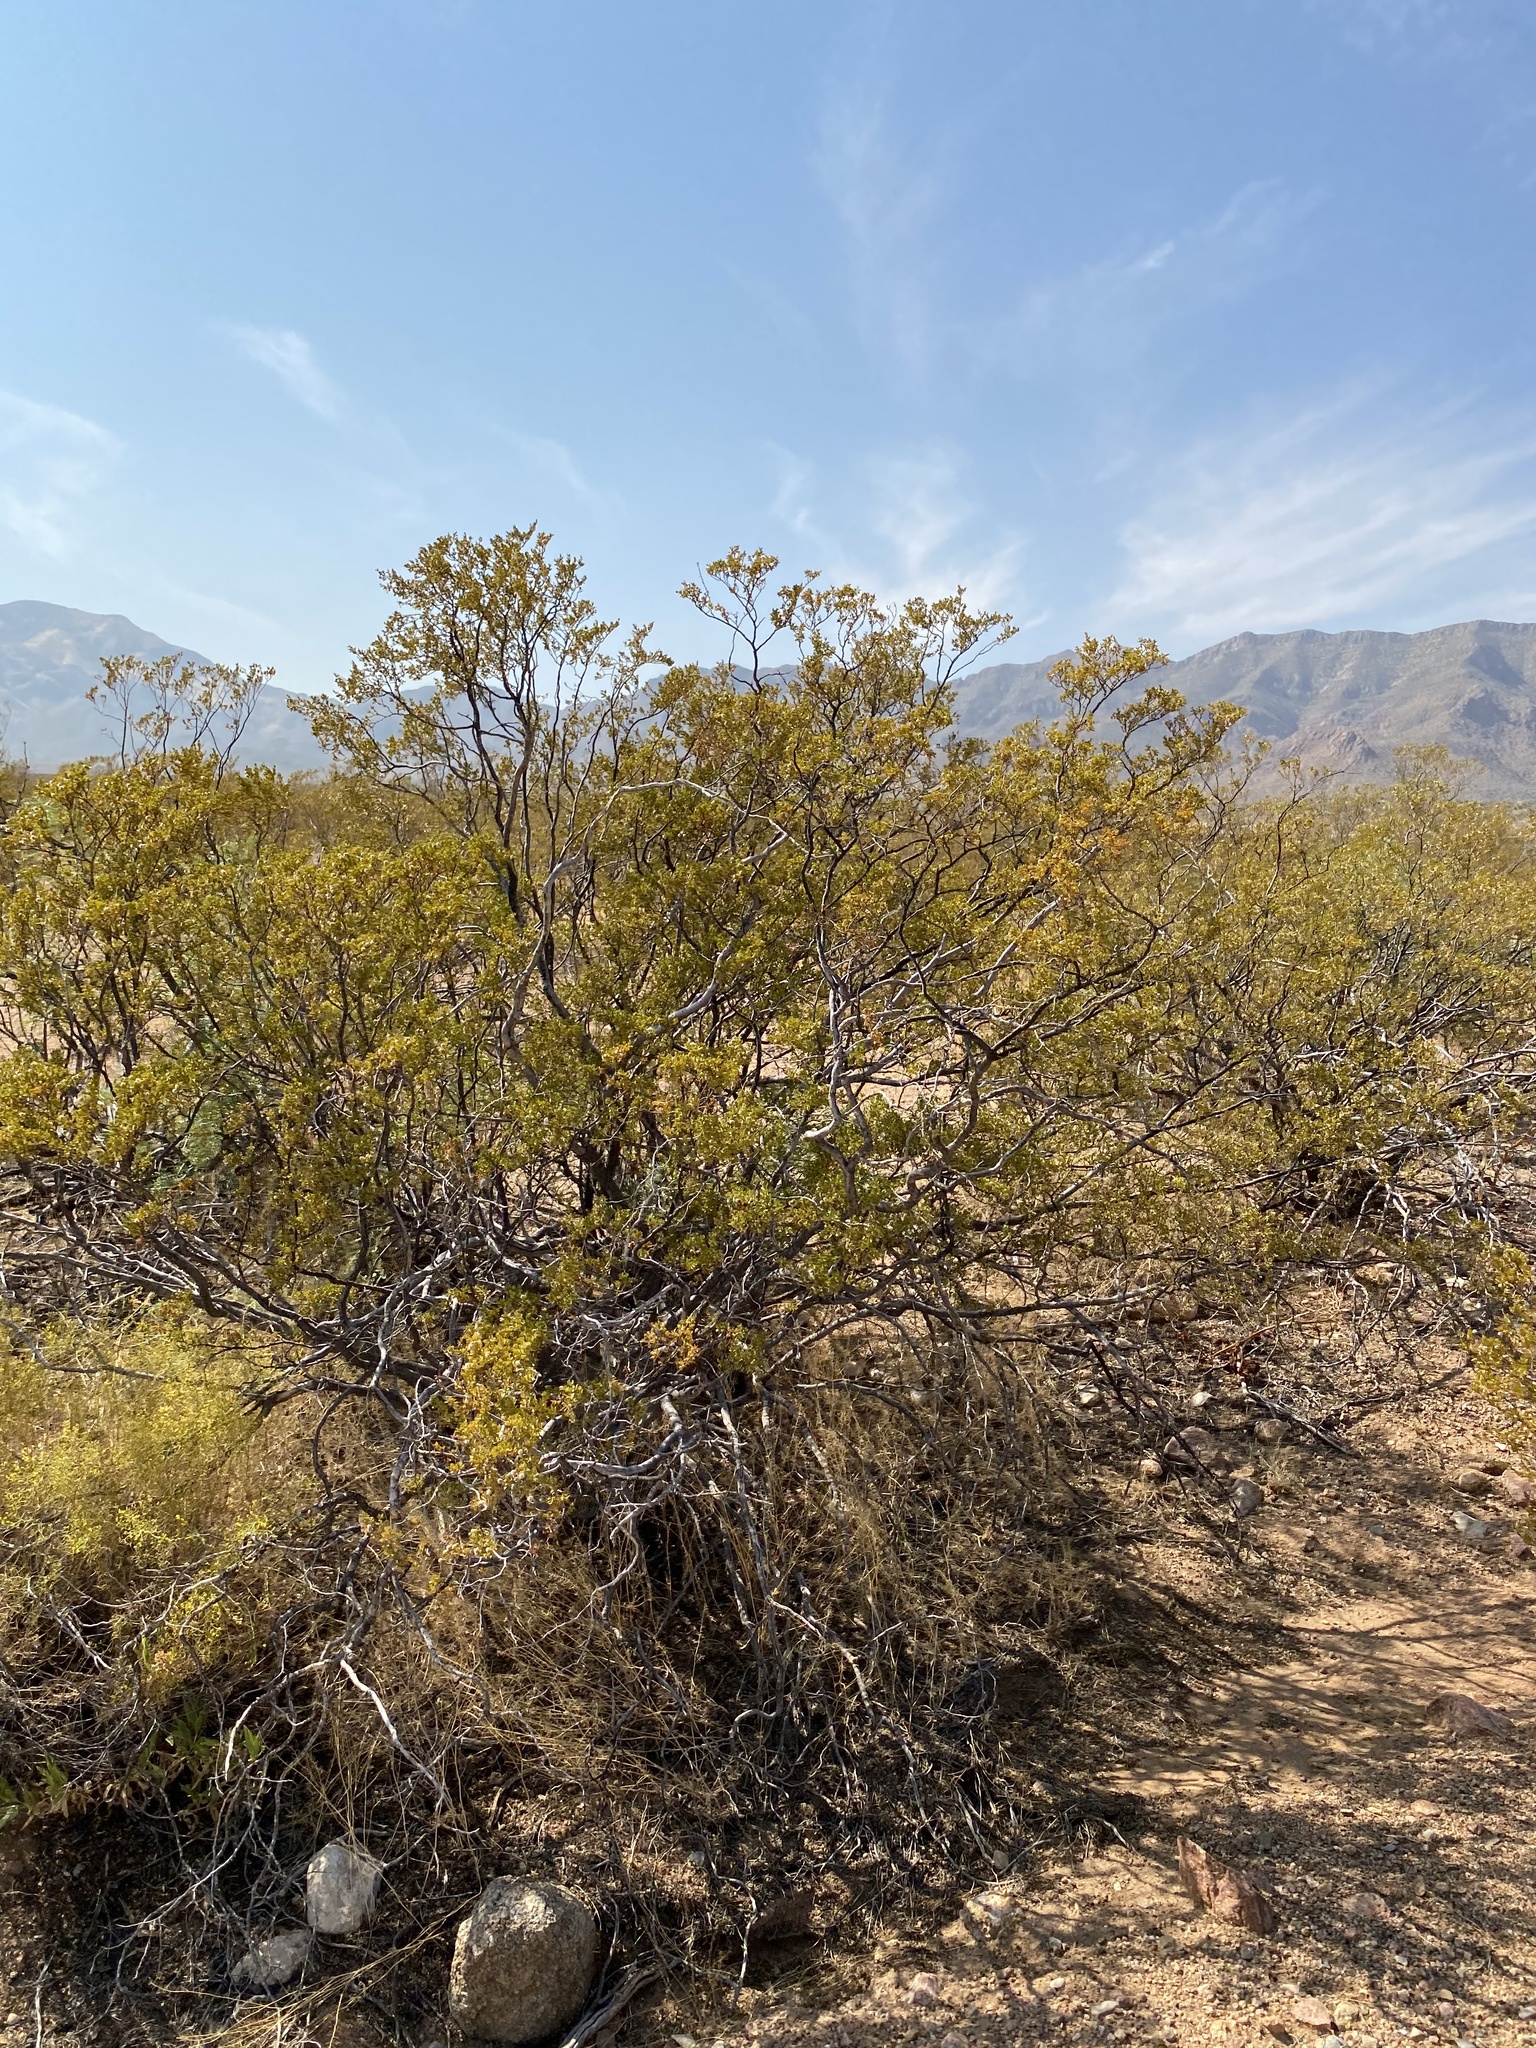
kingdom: Plantae
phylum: Tracheophyta
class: Magnoliopsida
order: Zygophyllales
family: Zygophyllaceae
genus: Larrea
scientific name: Larrea tridentata
